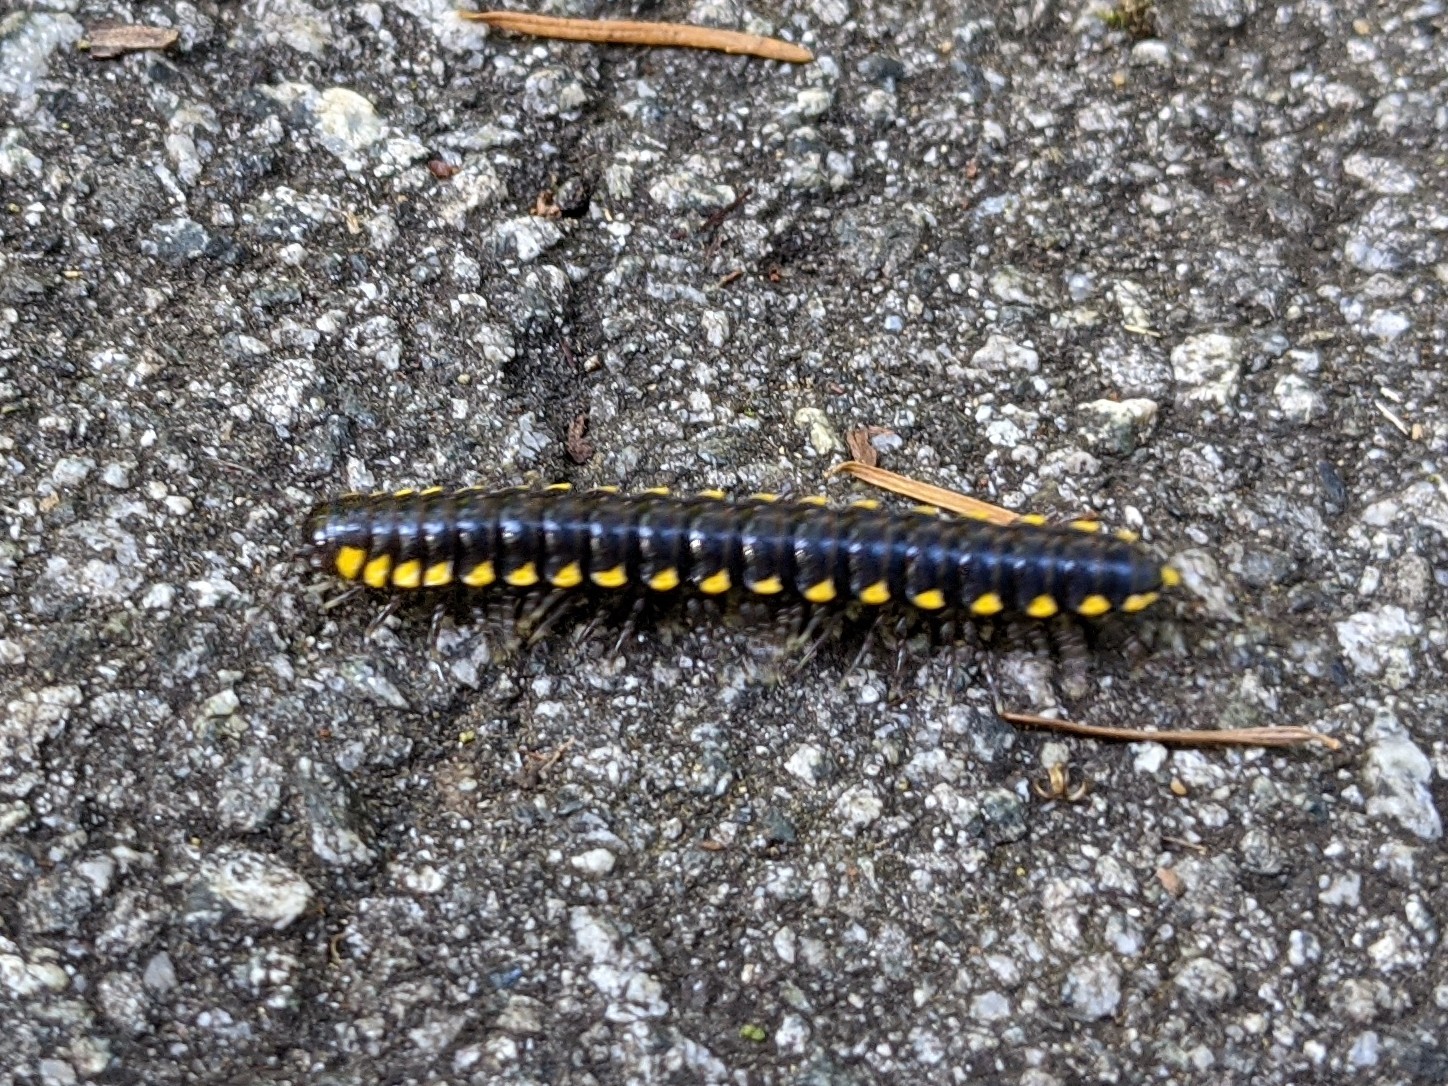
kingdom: Animalia
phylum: Arthropoda
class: Diplopoda
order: Polydesmida
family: Xystodesmidae
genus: Harpaphe
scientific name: Harpaphe haydeniana
